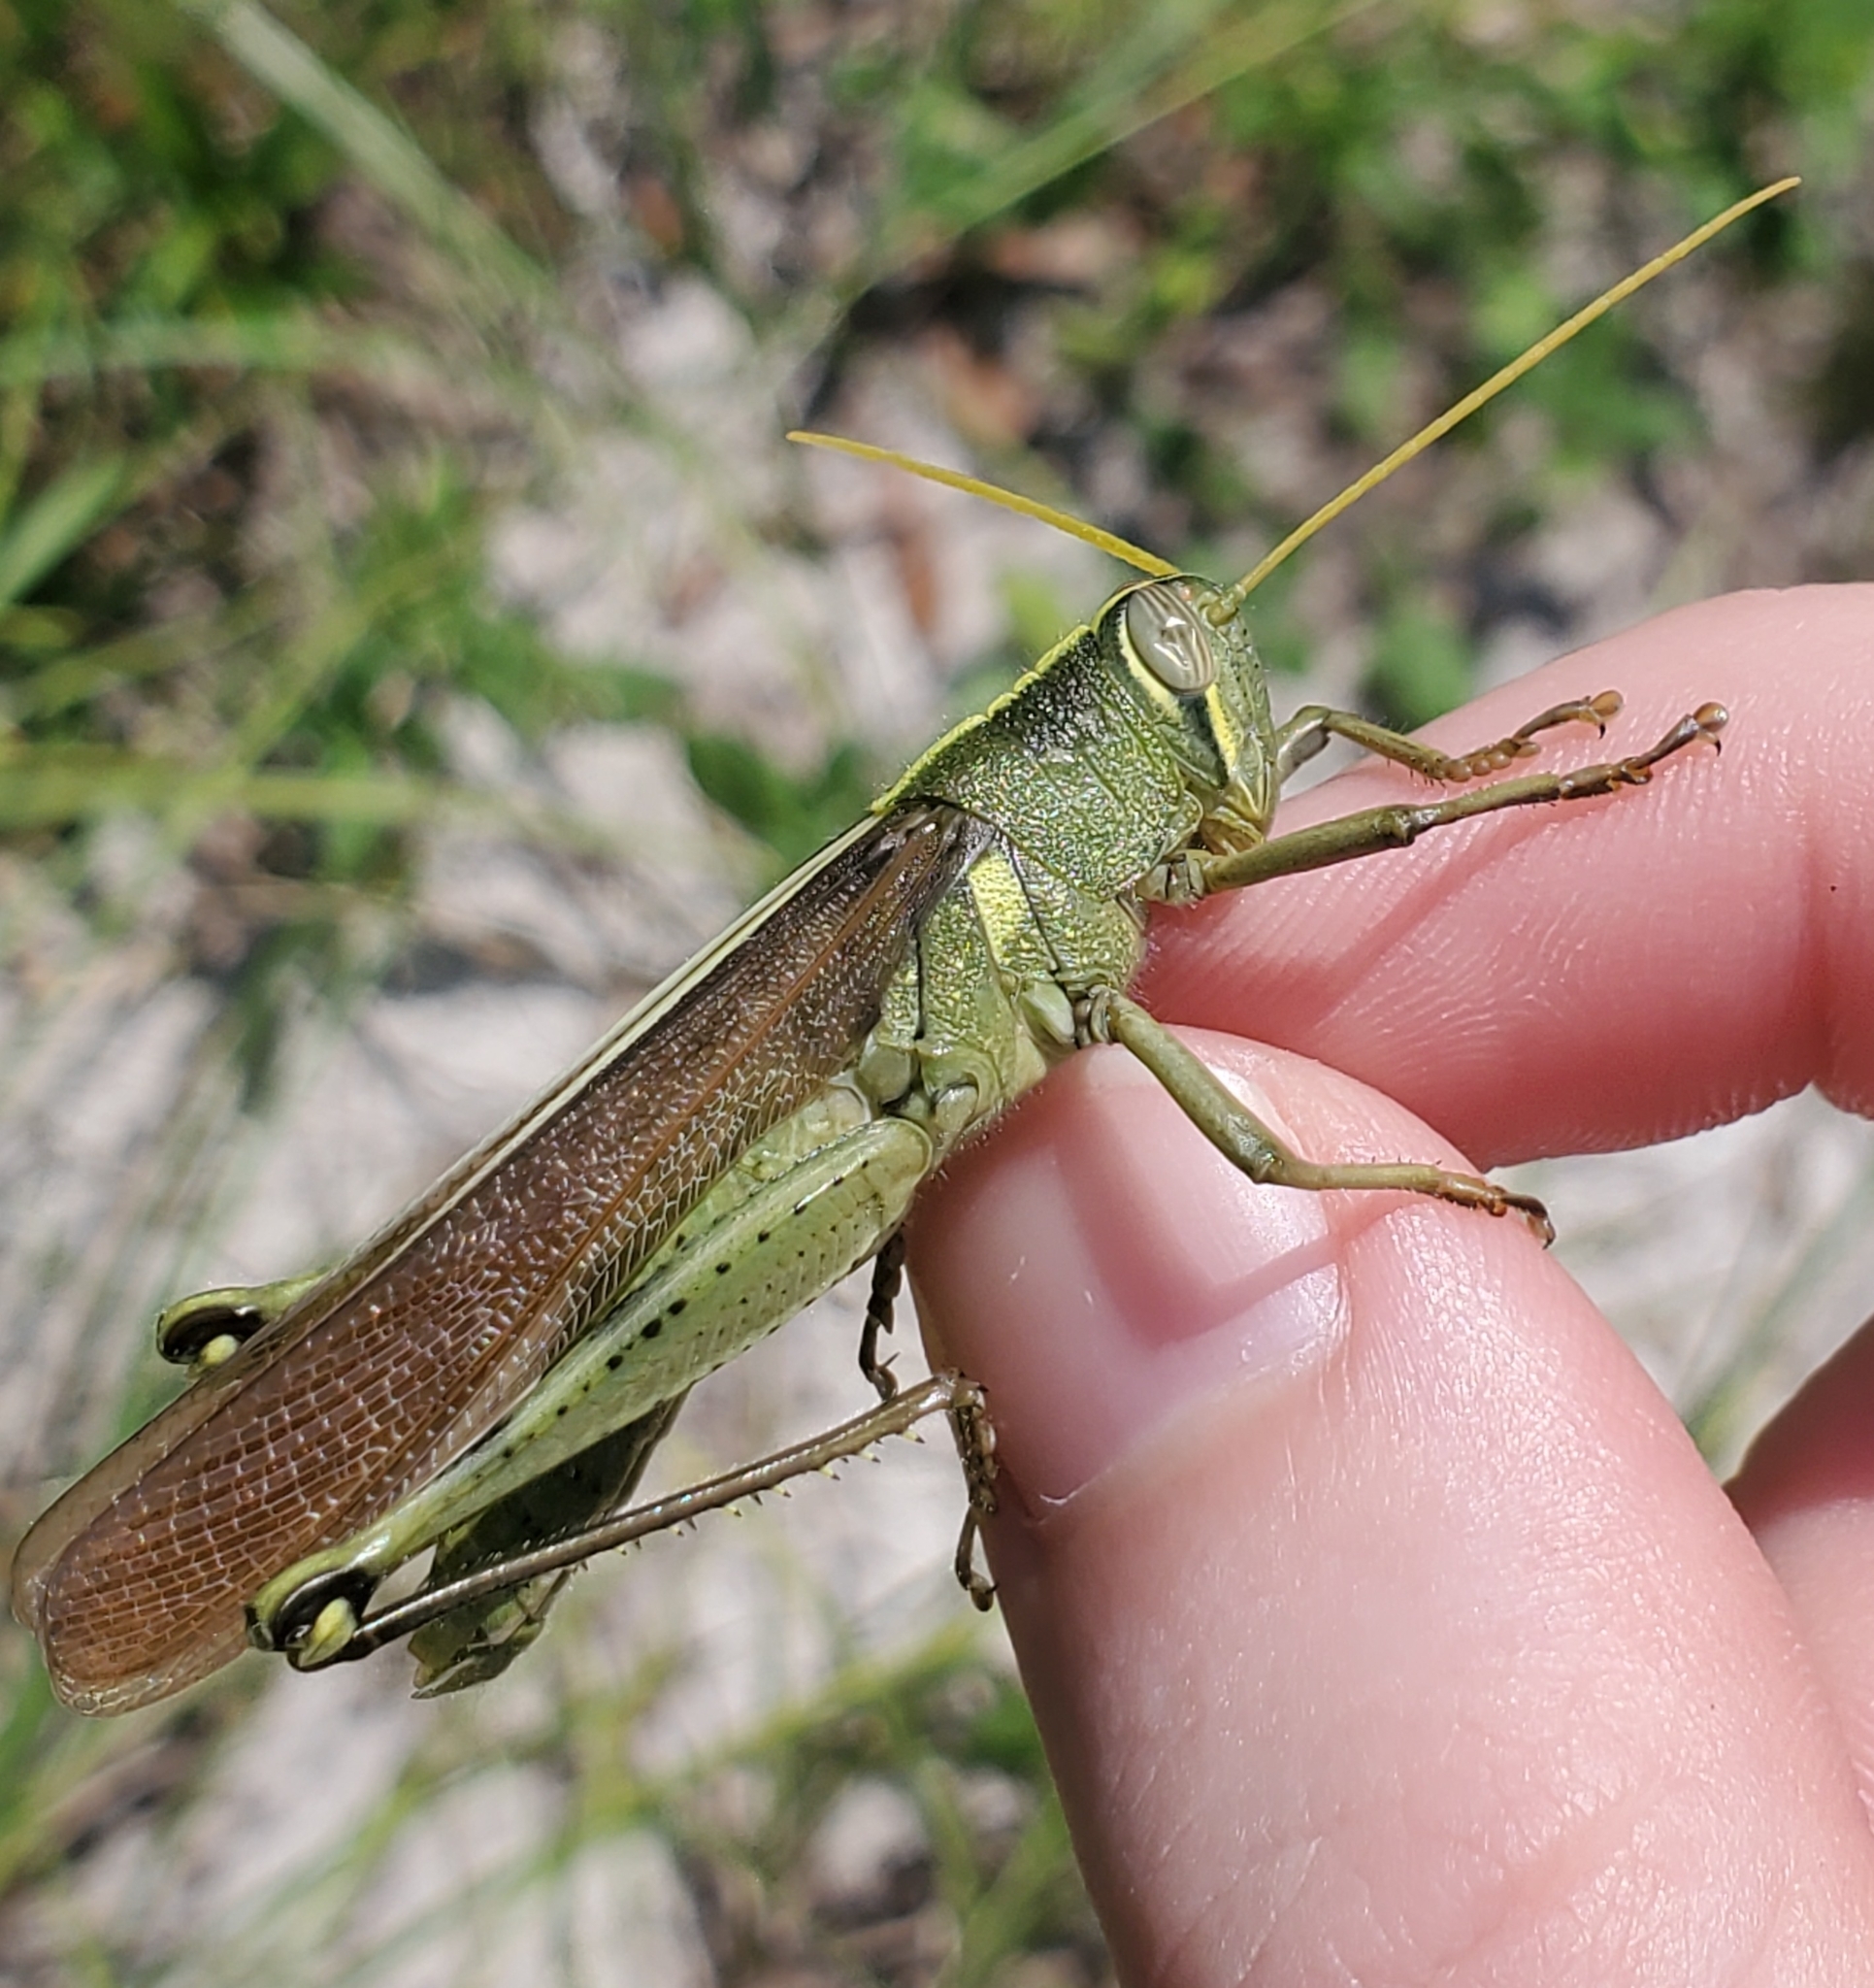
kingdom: Animalia
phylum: Arthropoda
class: Insecta
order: Orthoptera
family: Acrididae
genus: Schistocerca
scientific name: Schistocerca obscura
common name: Obscure bird grasshopper
